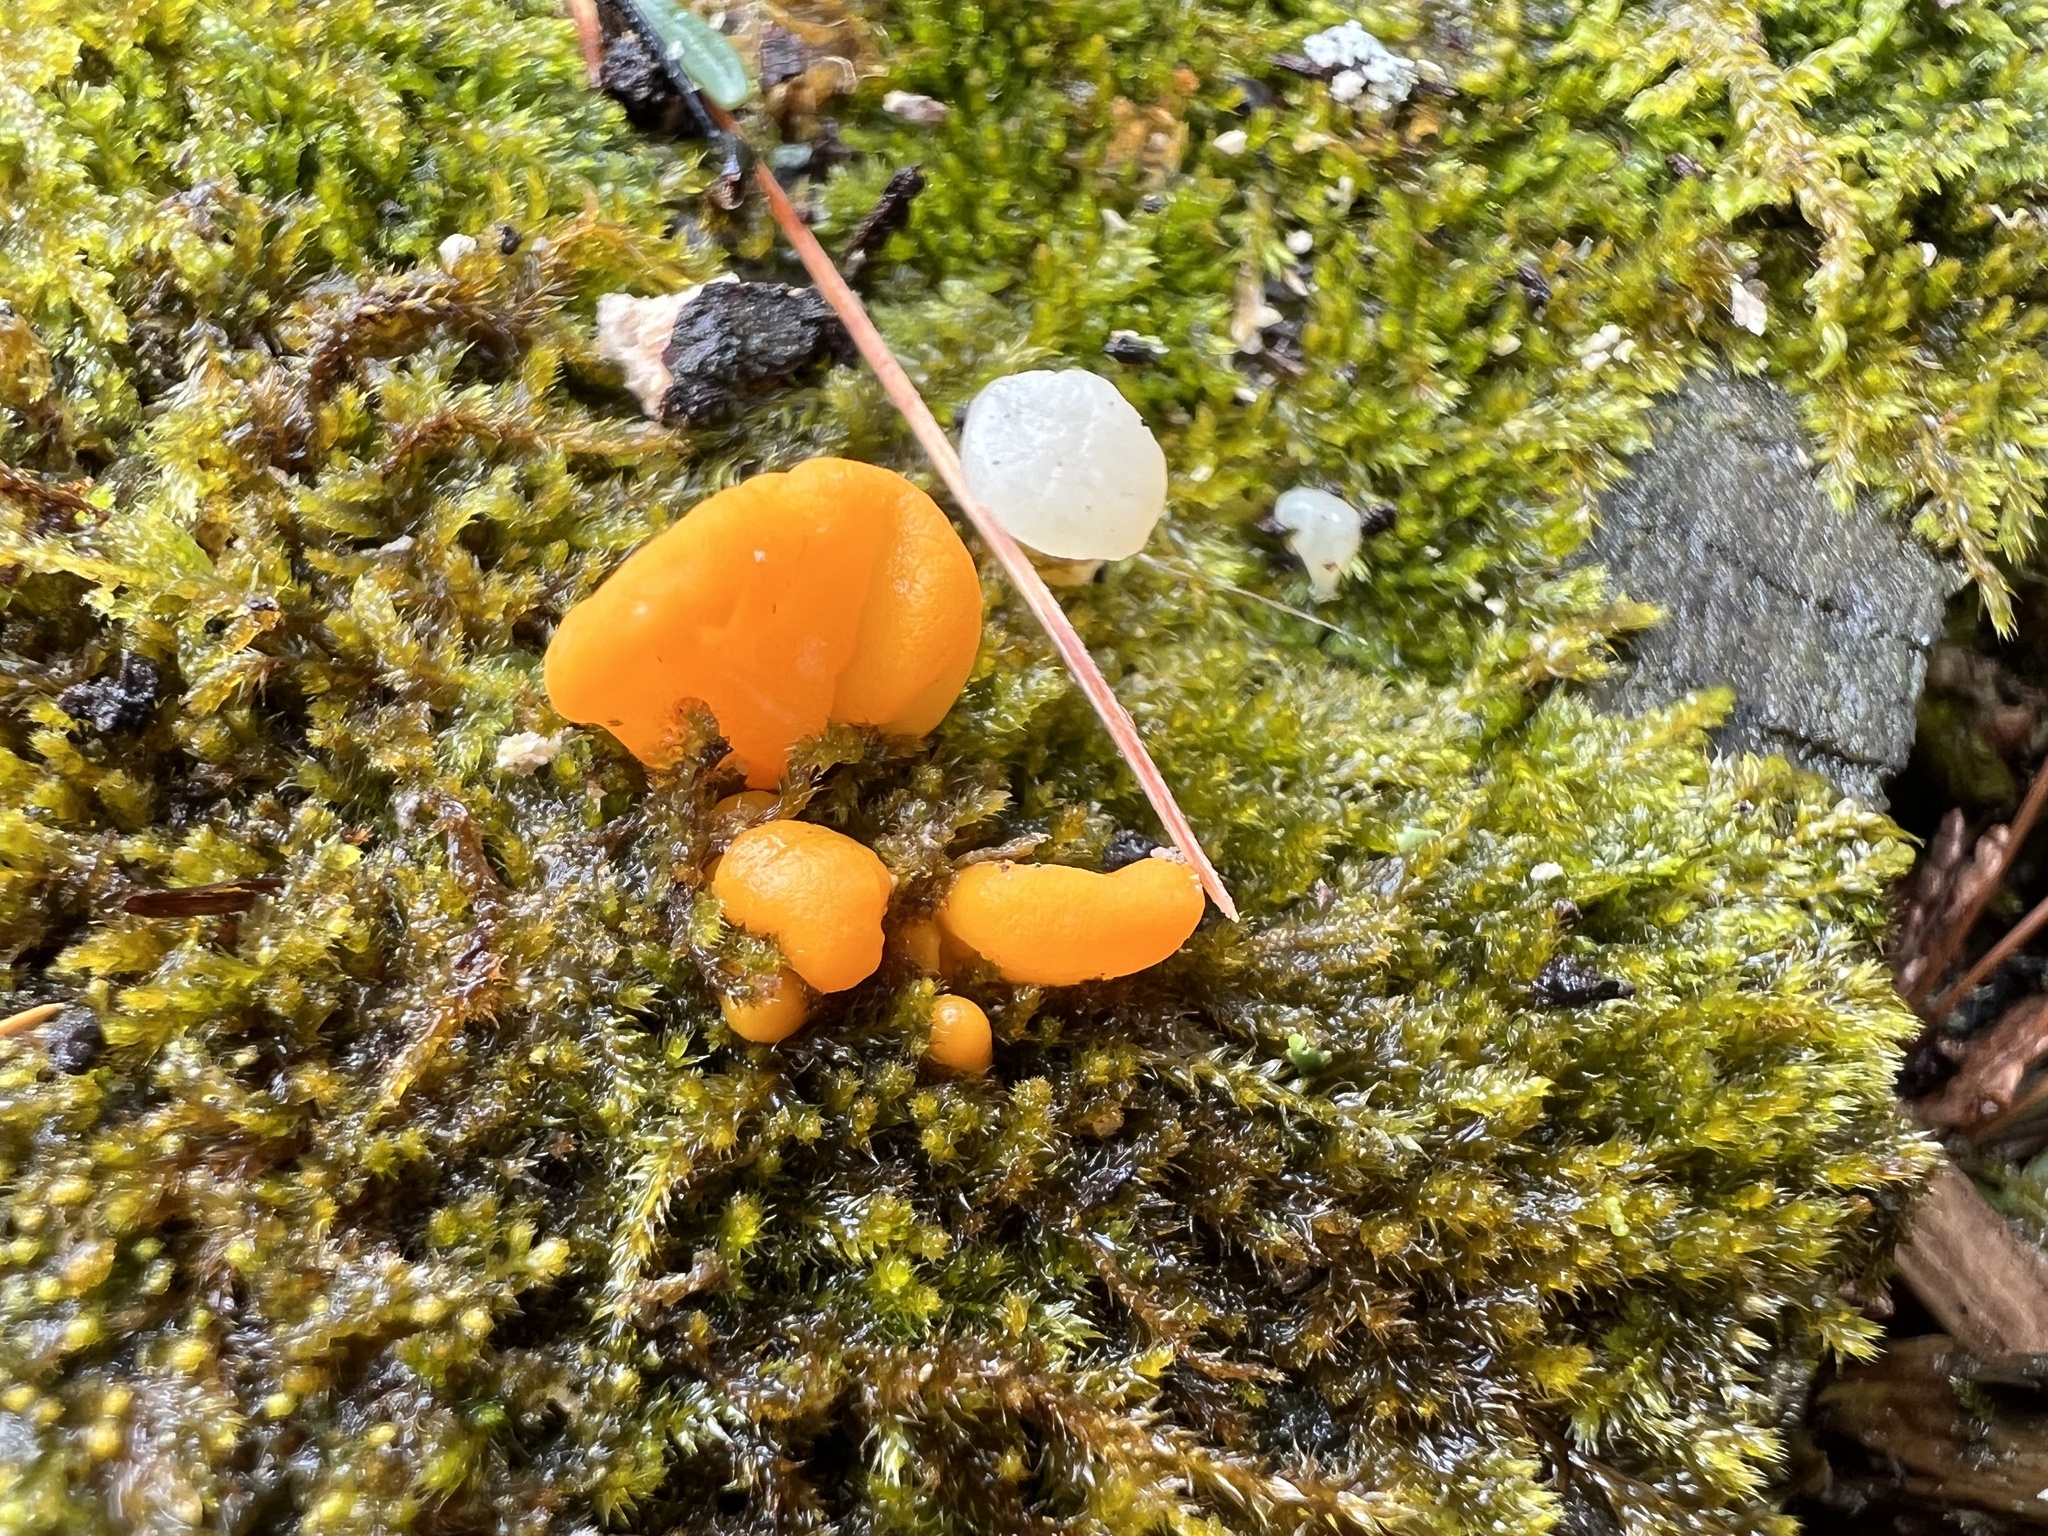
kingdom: Fungi
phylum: Basidiomycota
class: Dacrymycetes
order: Dacrymycetales
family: Dacrymycetaceae
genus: Dacrymyces
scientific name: Dacrymyces chrysospermus
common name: Orange jelly spot
